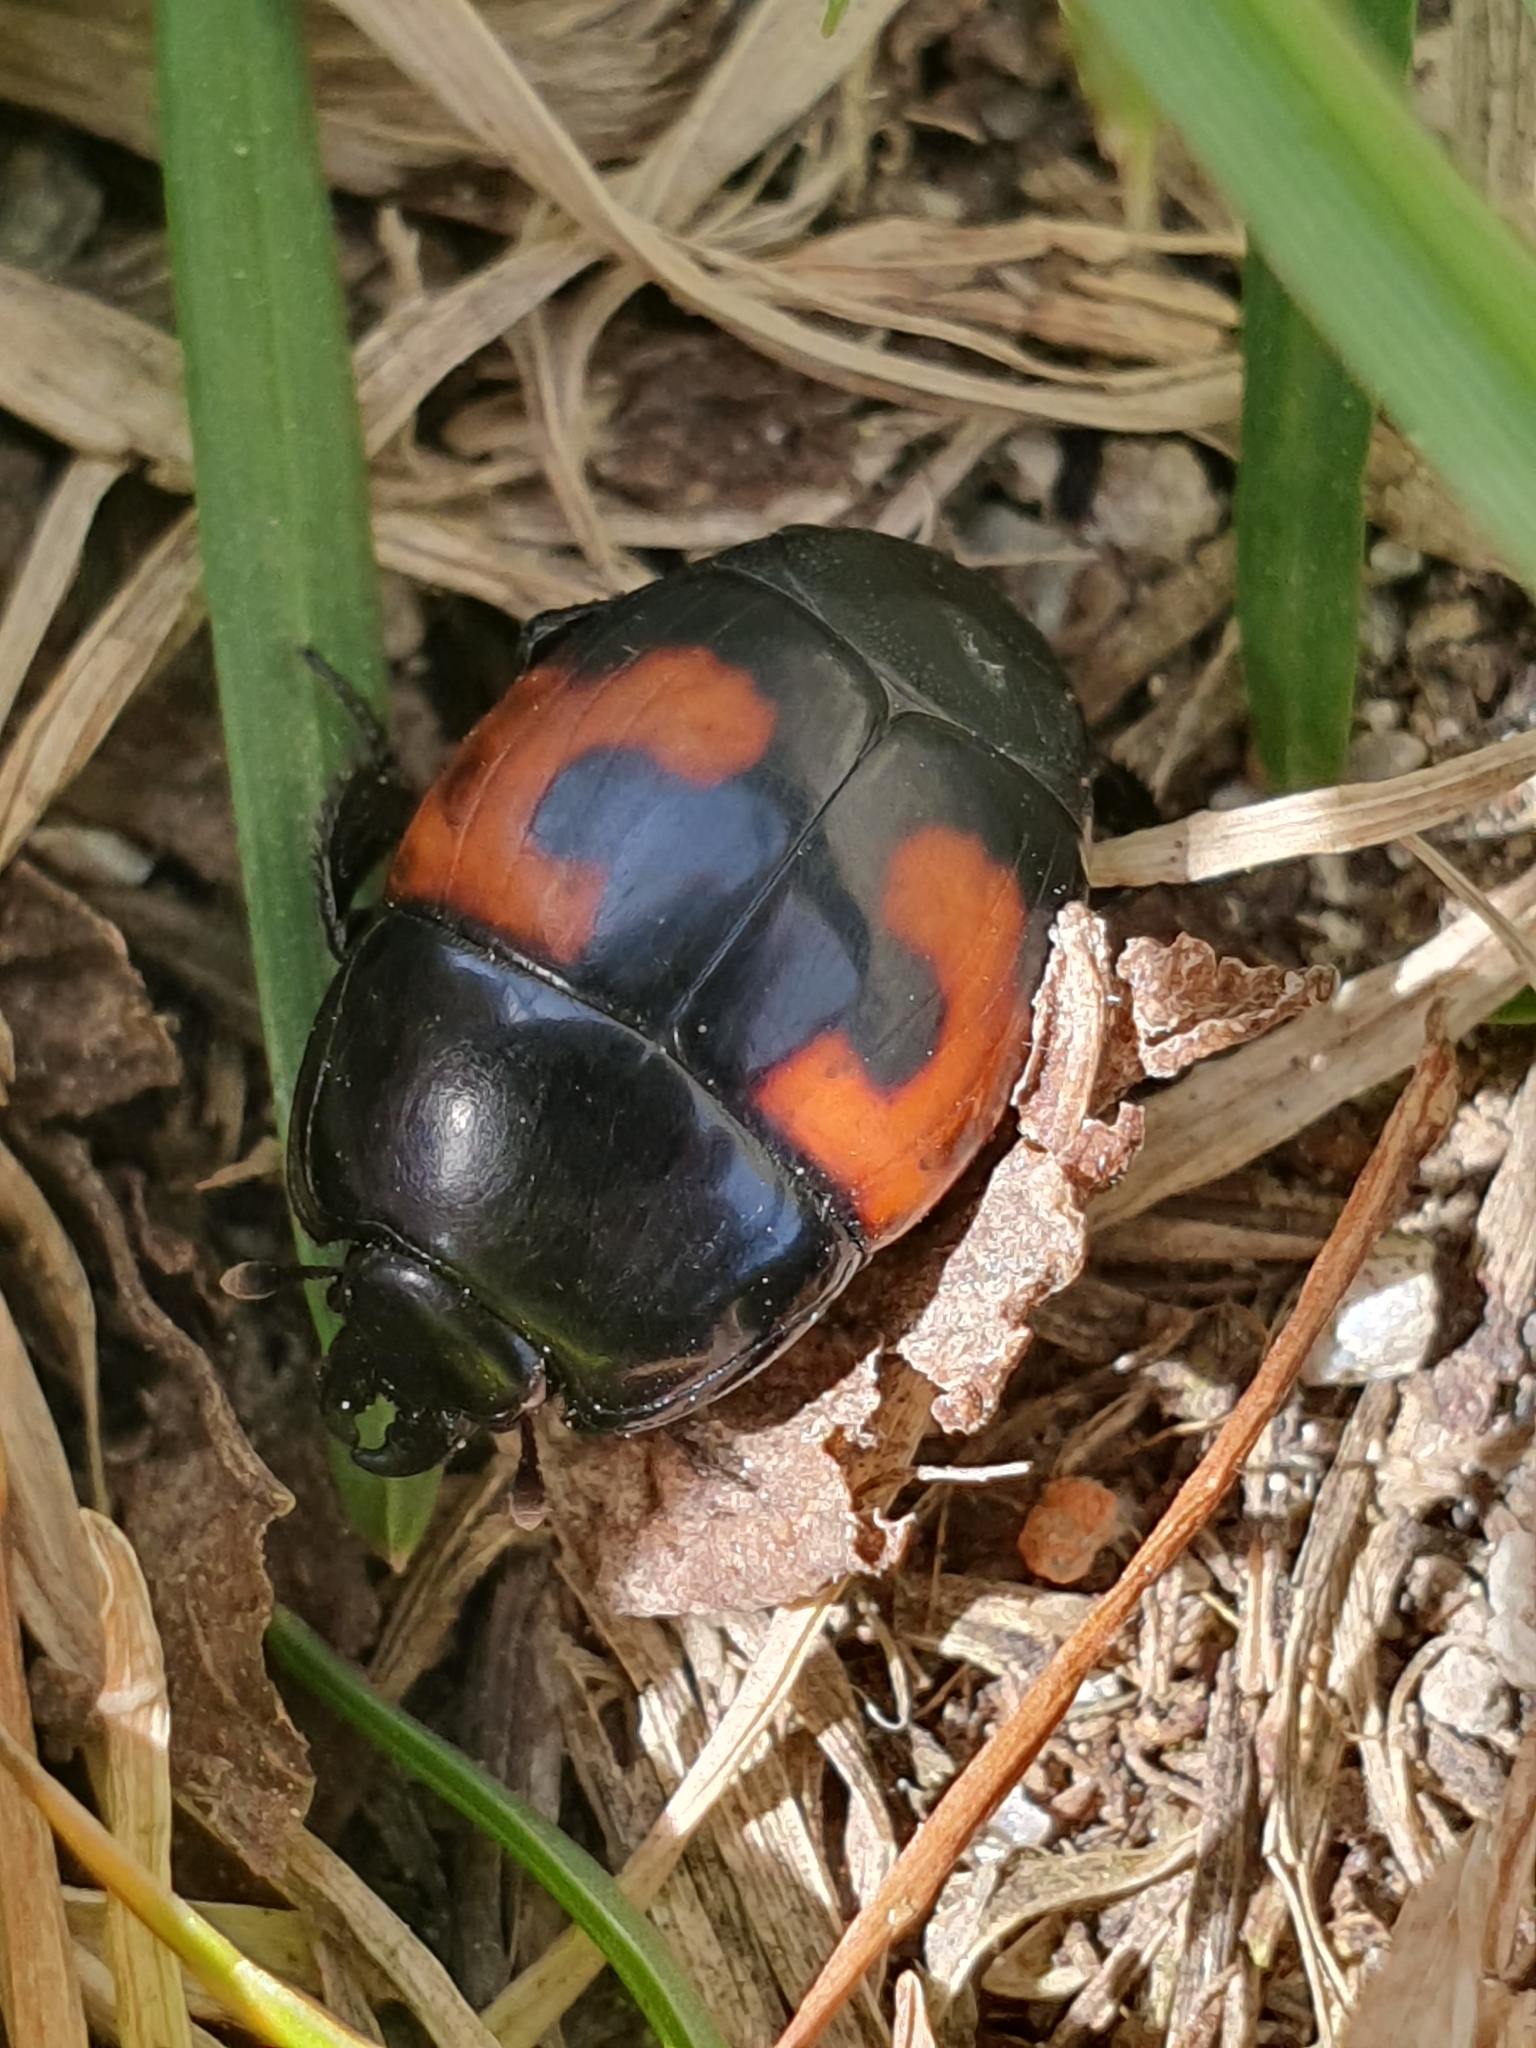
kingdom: Animalia
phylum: Arthropoda
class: Insecta
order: Coleoptera
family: Histeridae
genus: Hister
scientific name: Hister quadrimaculatus
